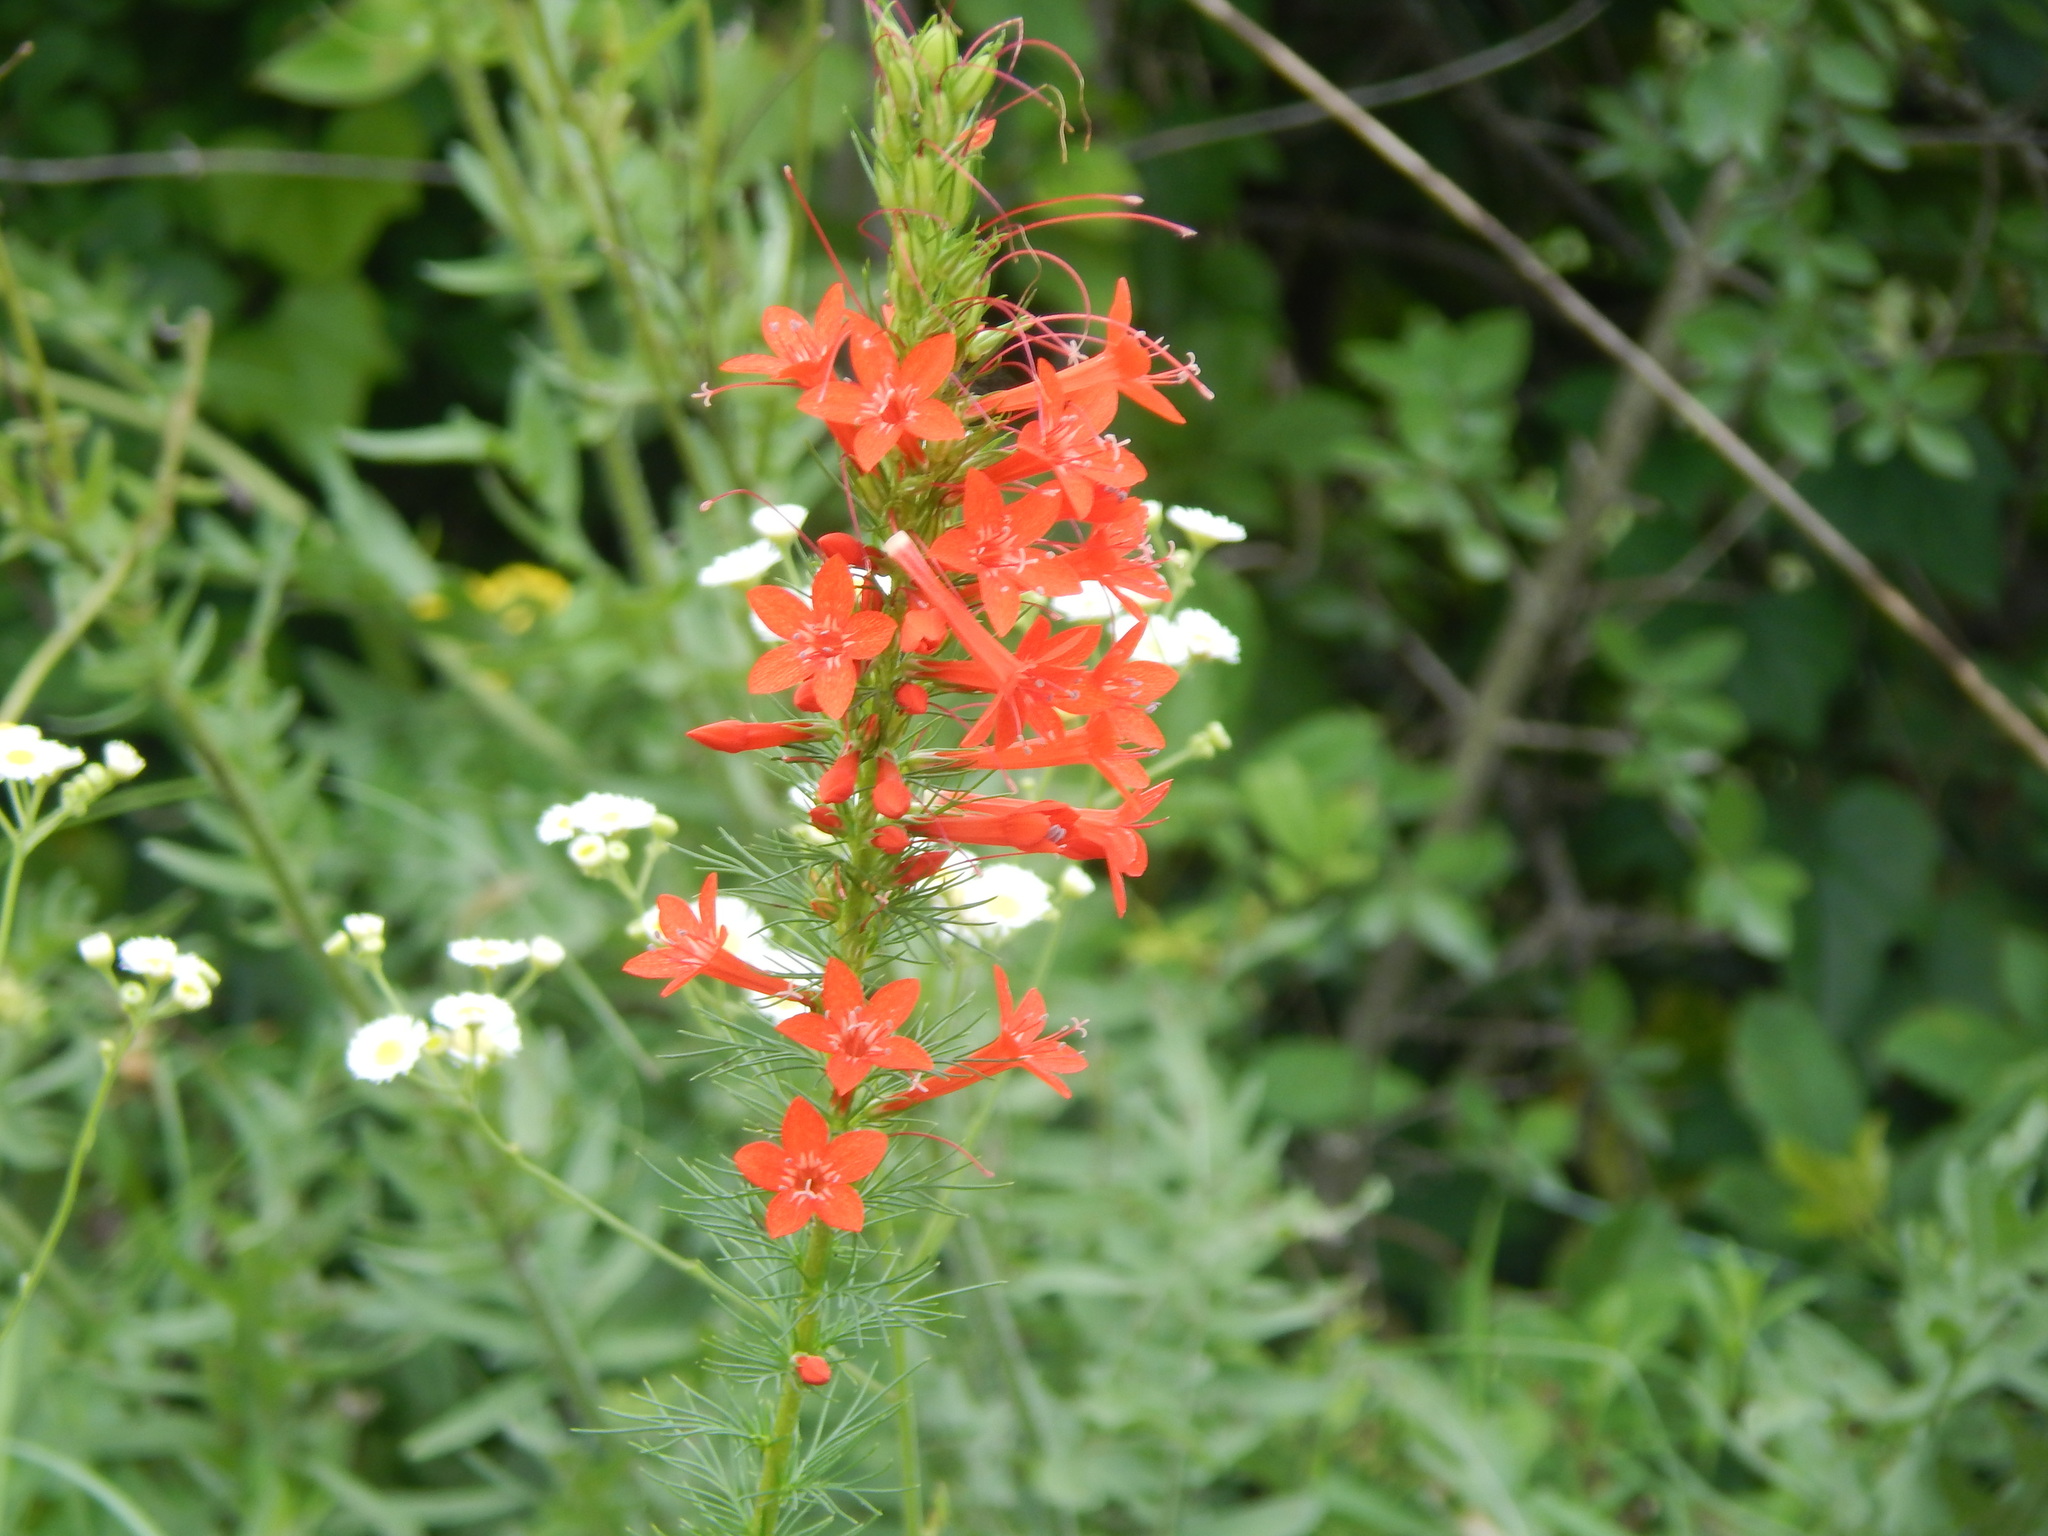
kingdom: Plantae
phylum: Tracheophyta
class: Magnoliopsida
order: Ericales
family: Polemoniaceae
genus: Ipomopsis
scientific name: Ipomopsis rubra
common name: Skyrocket
